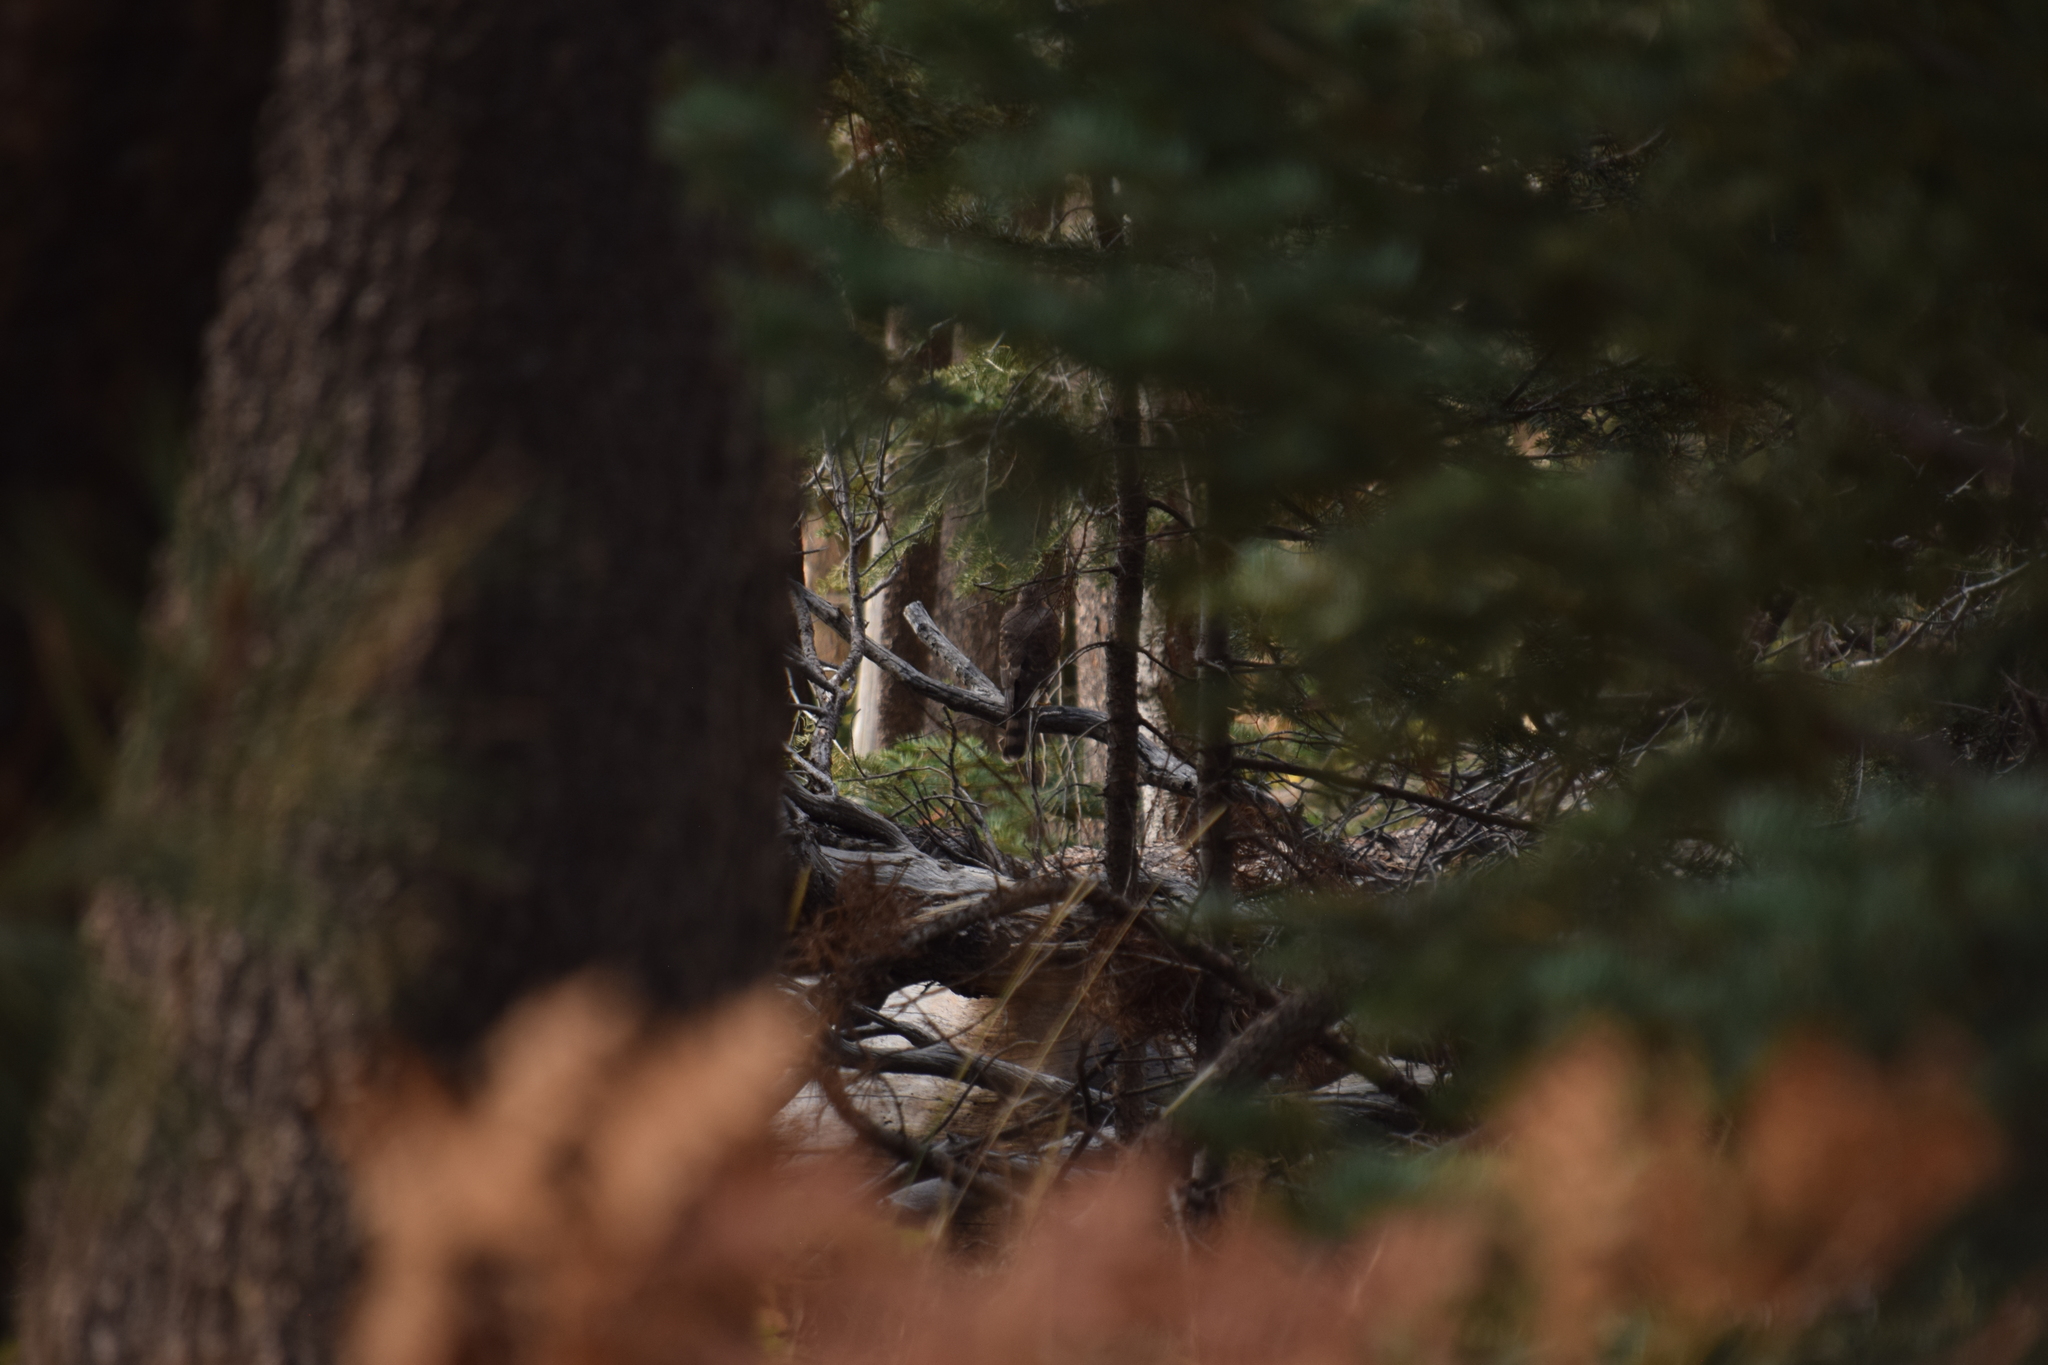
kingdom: Animalia
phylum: Chordata
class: Aves
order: Accipitriformes
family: Accipitridae
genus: Accipiter
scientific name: Accipiter striatus
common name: Sharp-shinned hawk
